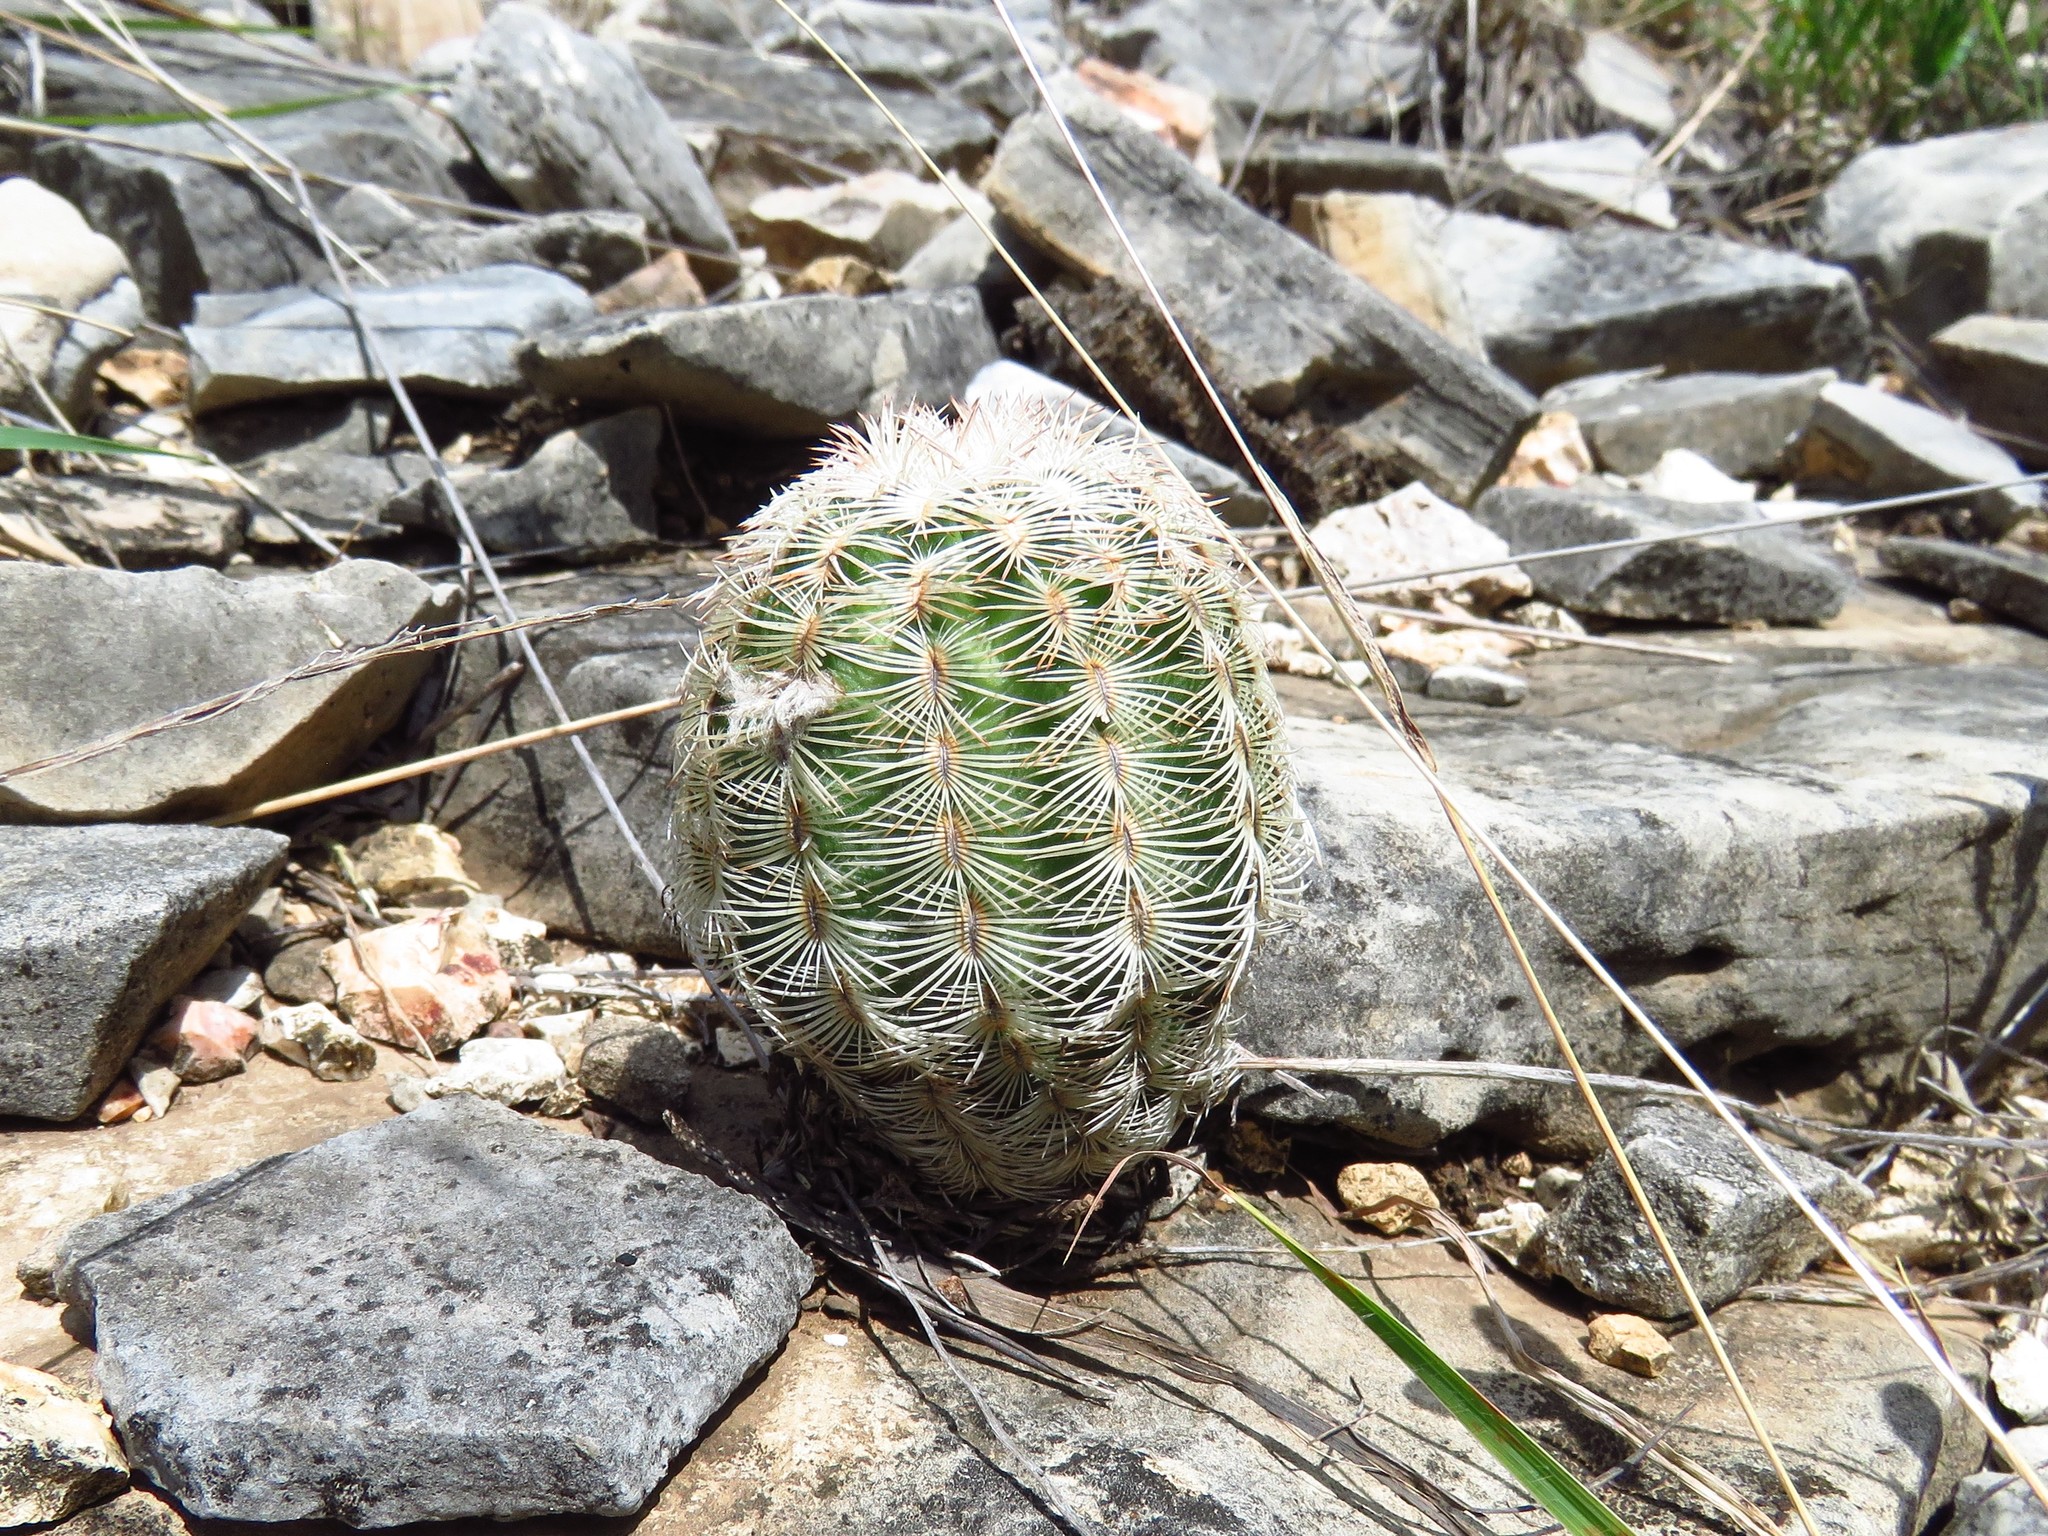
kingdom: Plantae
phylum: Tracheophyta
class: Magnoliopsida
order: Caryophyllales
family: Cactaceae
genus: Echinocereus
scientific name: Echinocereus reichenbachii
